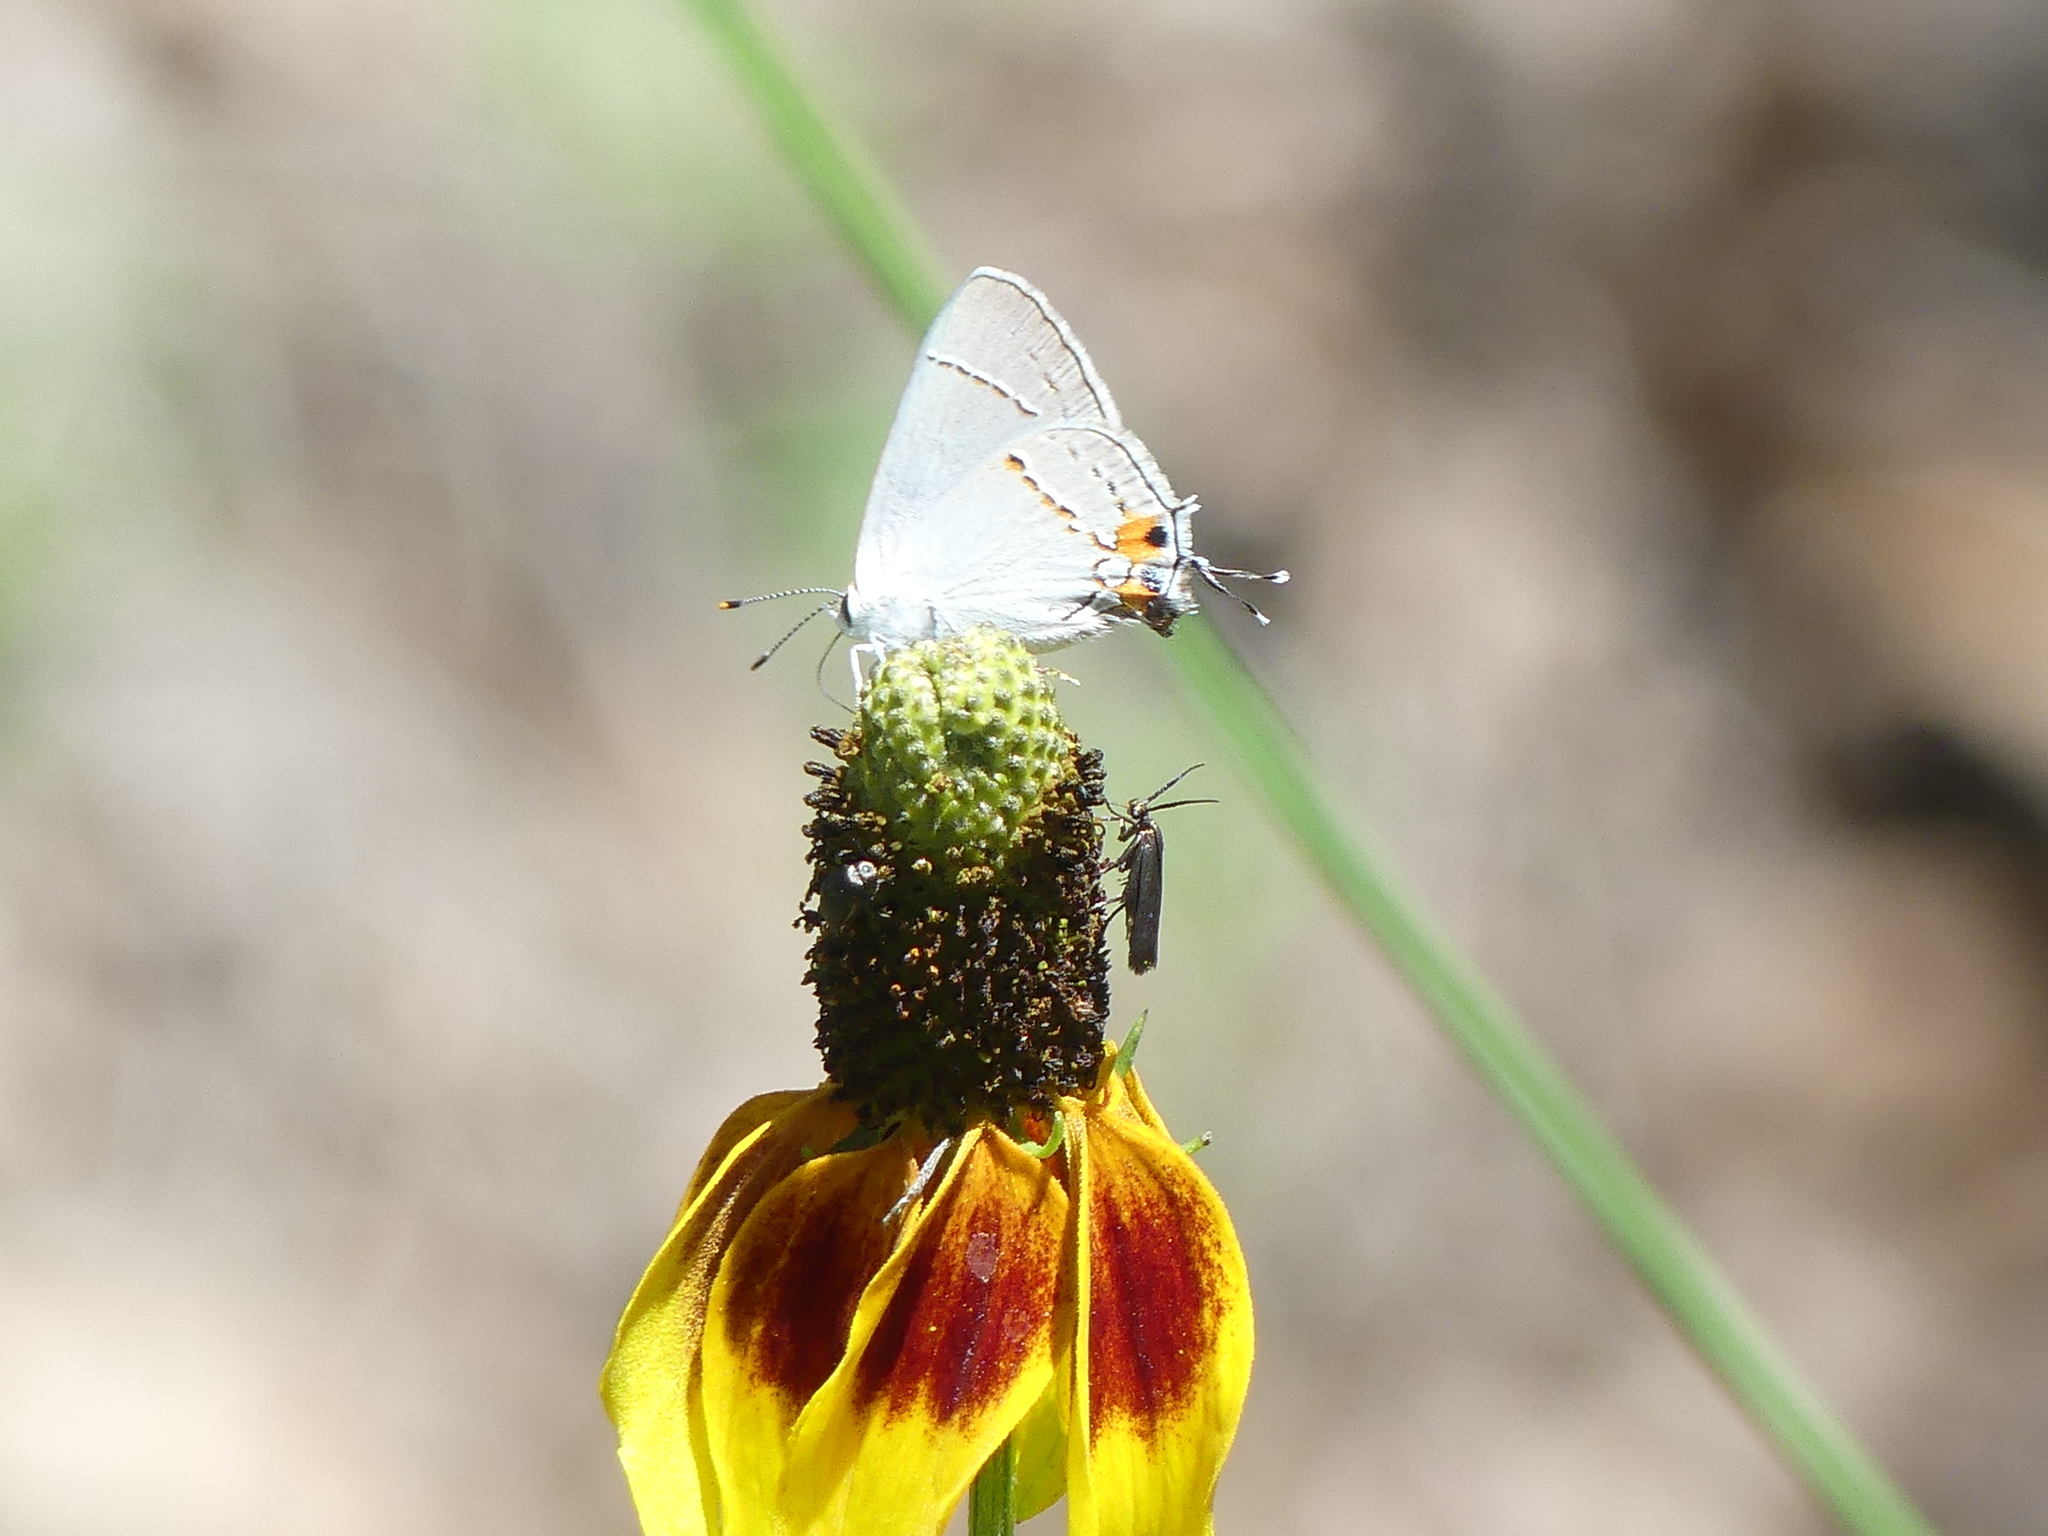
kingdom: Animalia
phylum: Arthropoda
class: Insecta
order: Lepidoptera
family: Lycaenidae
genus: Strymon
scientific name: Strymon melinus
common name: Gray hairstreak
